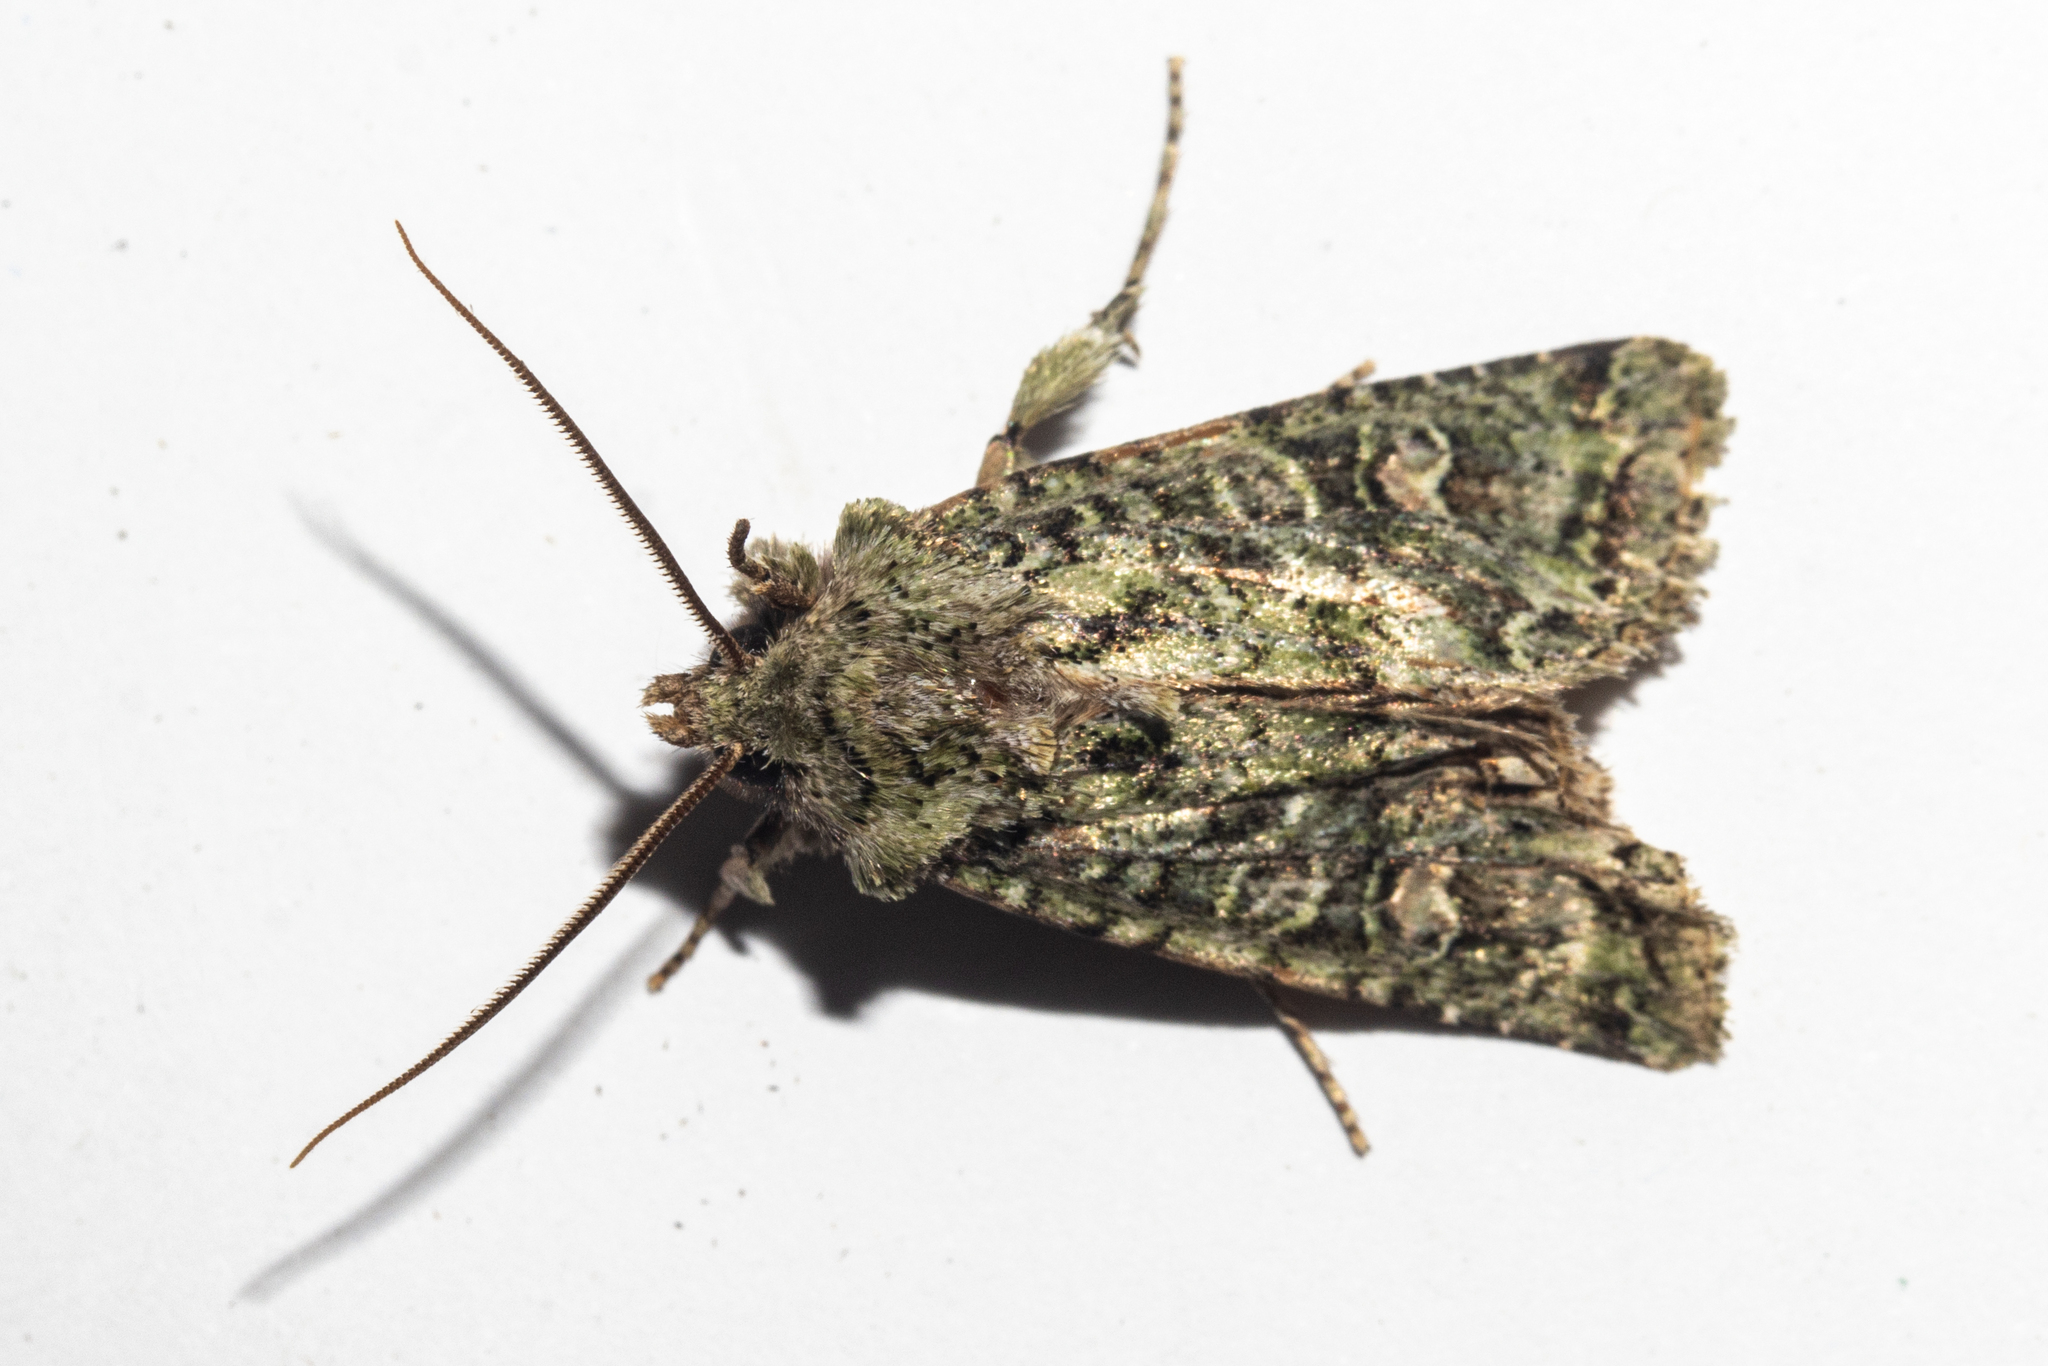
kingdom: Animalia
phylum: Arthropoda
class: Insecta
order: Lepidoptera
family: Noctuidae
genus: Ichneutica
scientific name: Ichneutica
